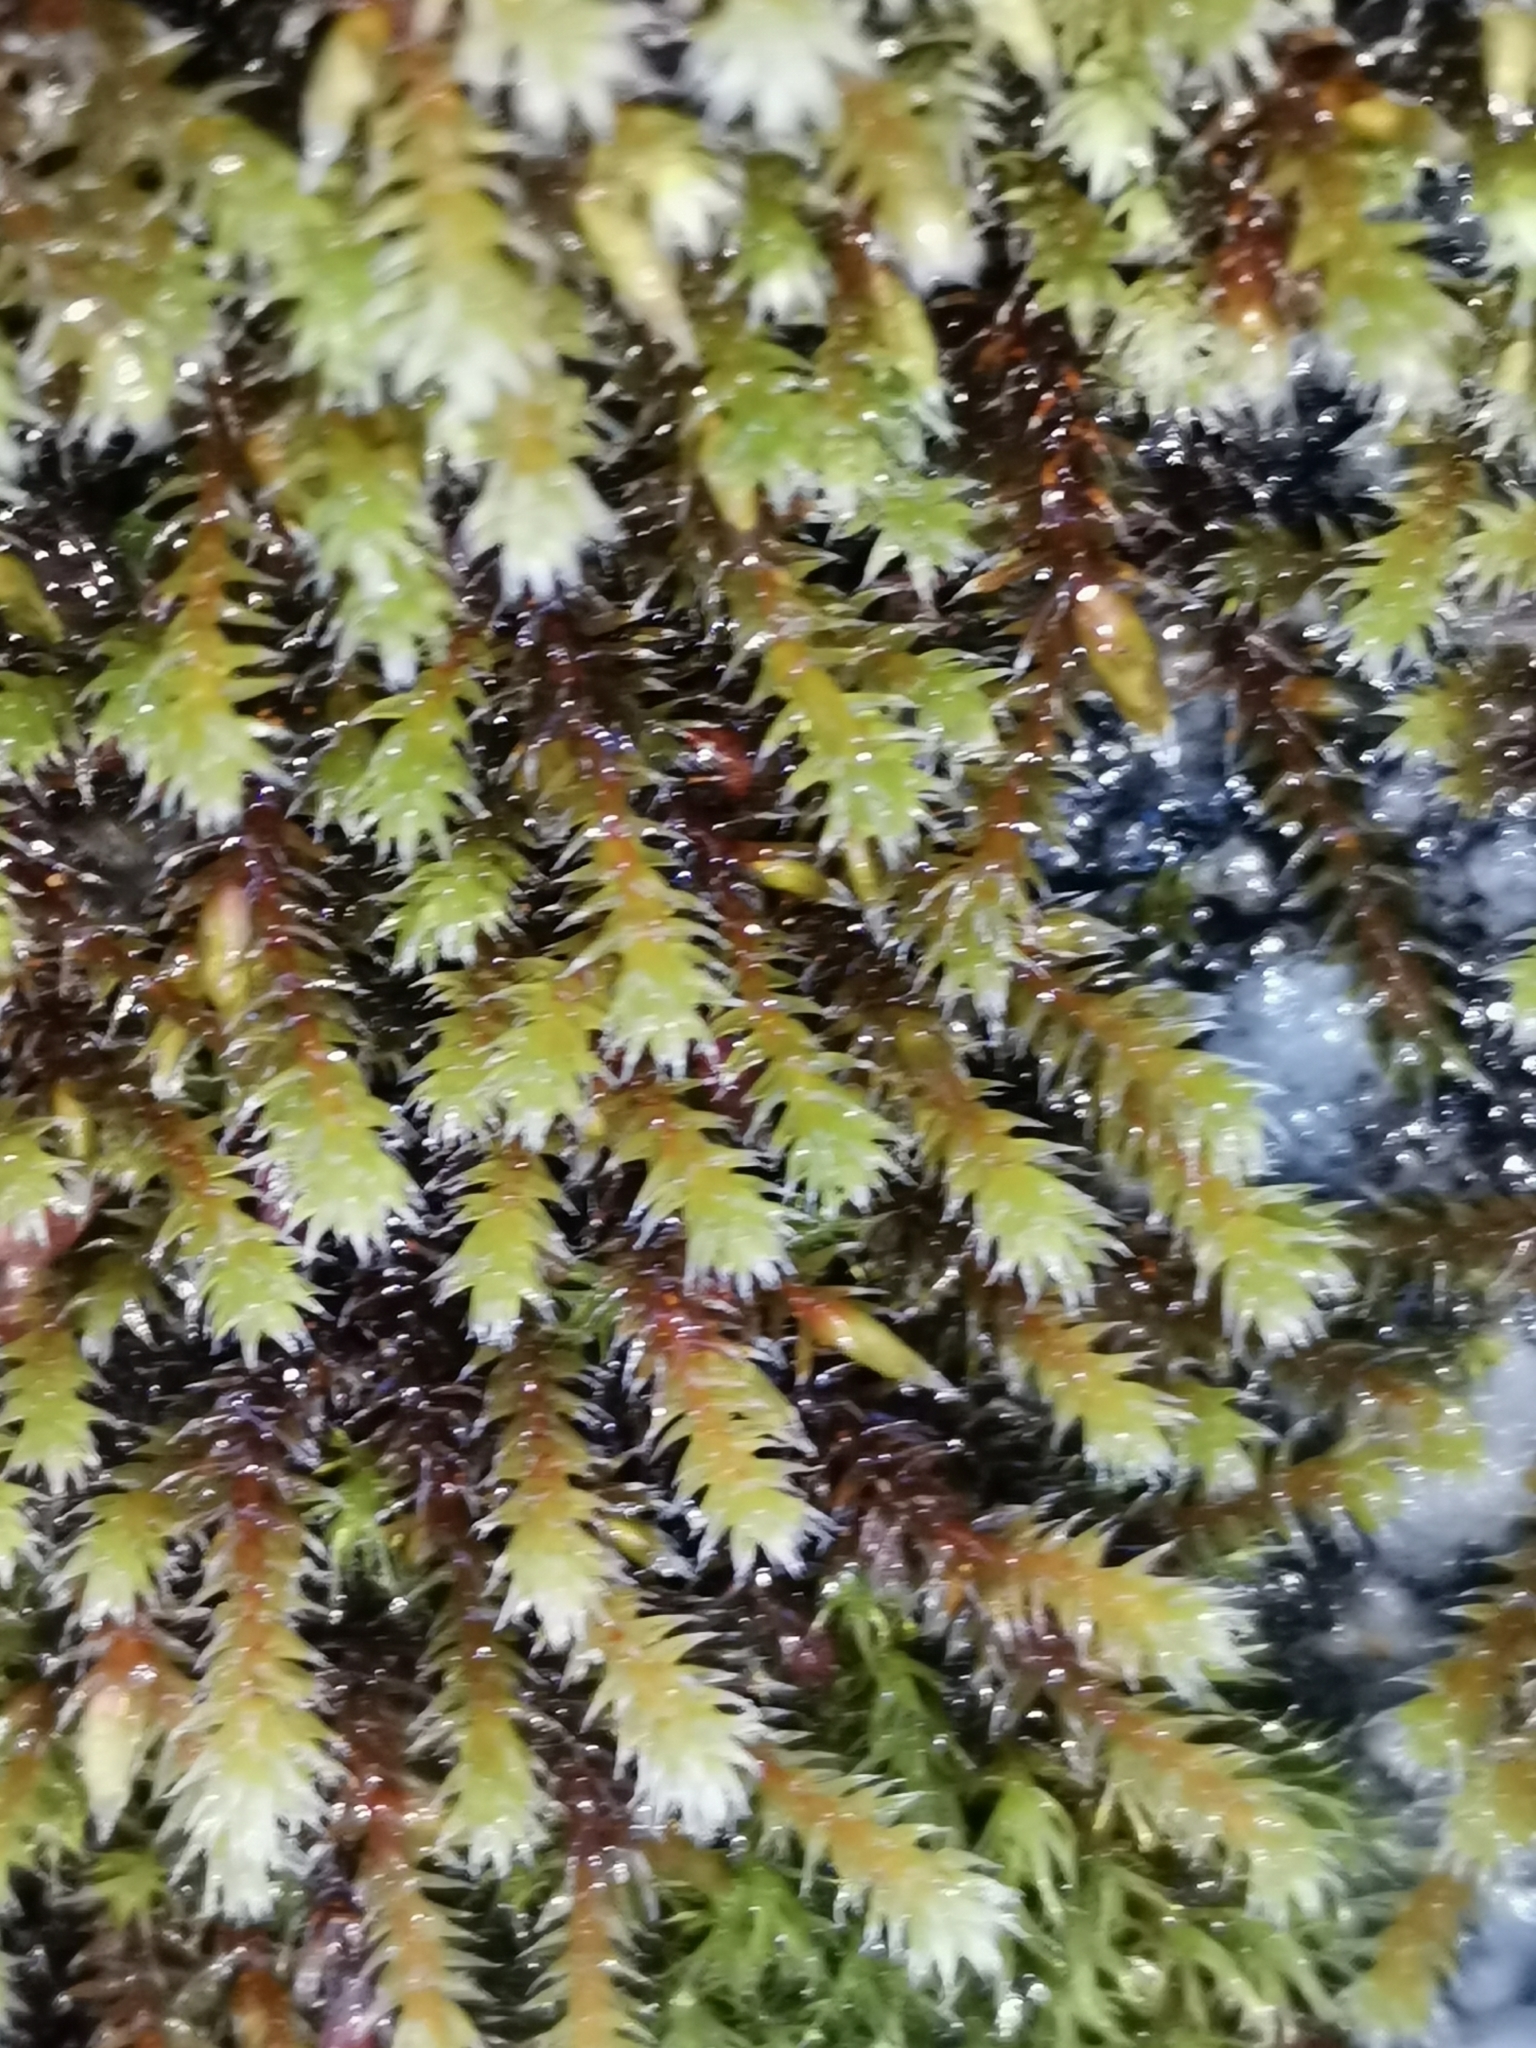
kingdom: Plantae
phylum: Bryophyta
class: Bryopsida
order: Hedwigiales
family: Hedwigiaceae
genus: Hedwigia
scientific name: Hedwigia ciliata
